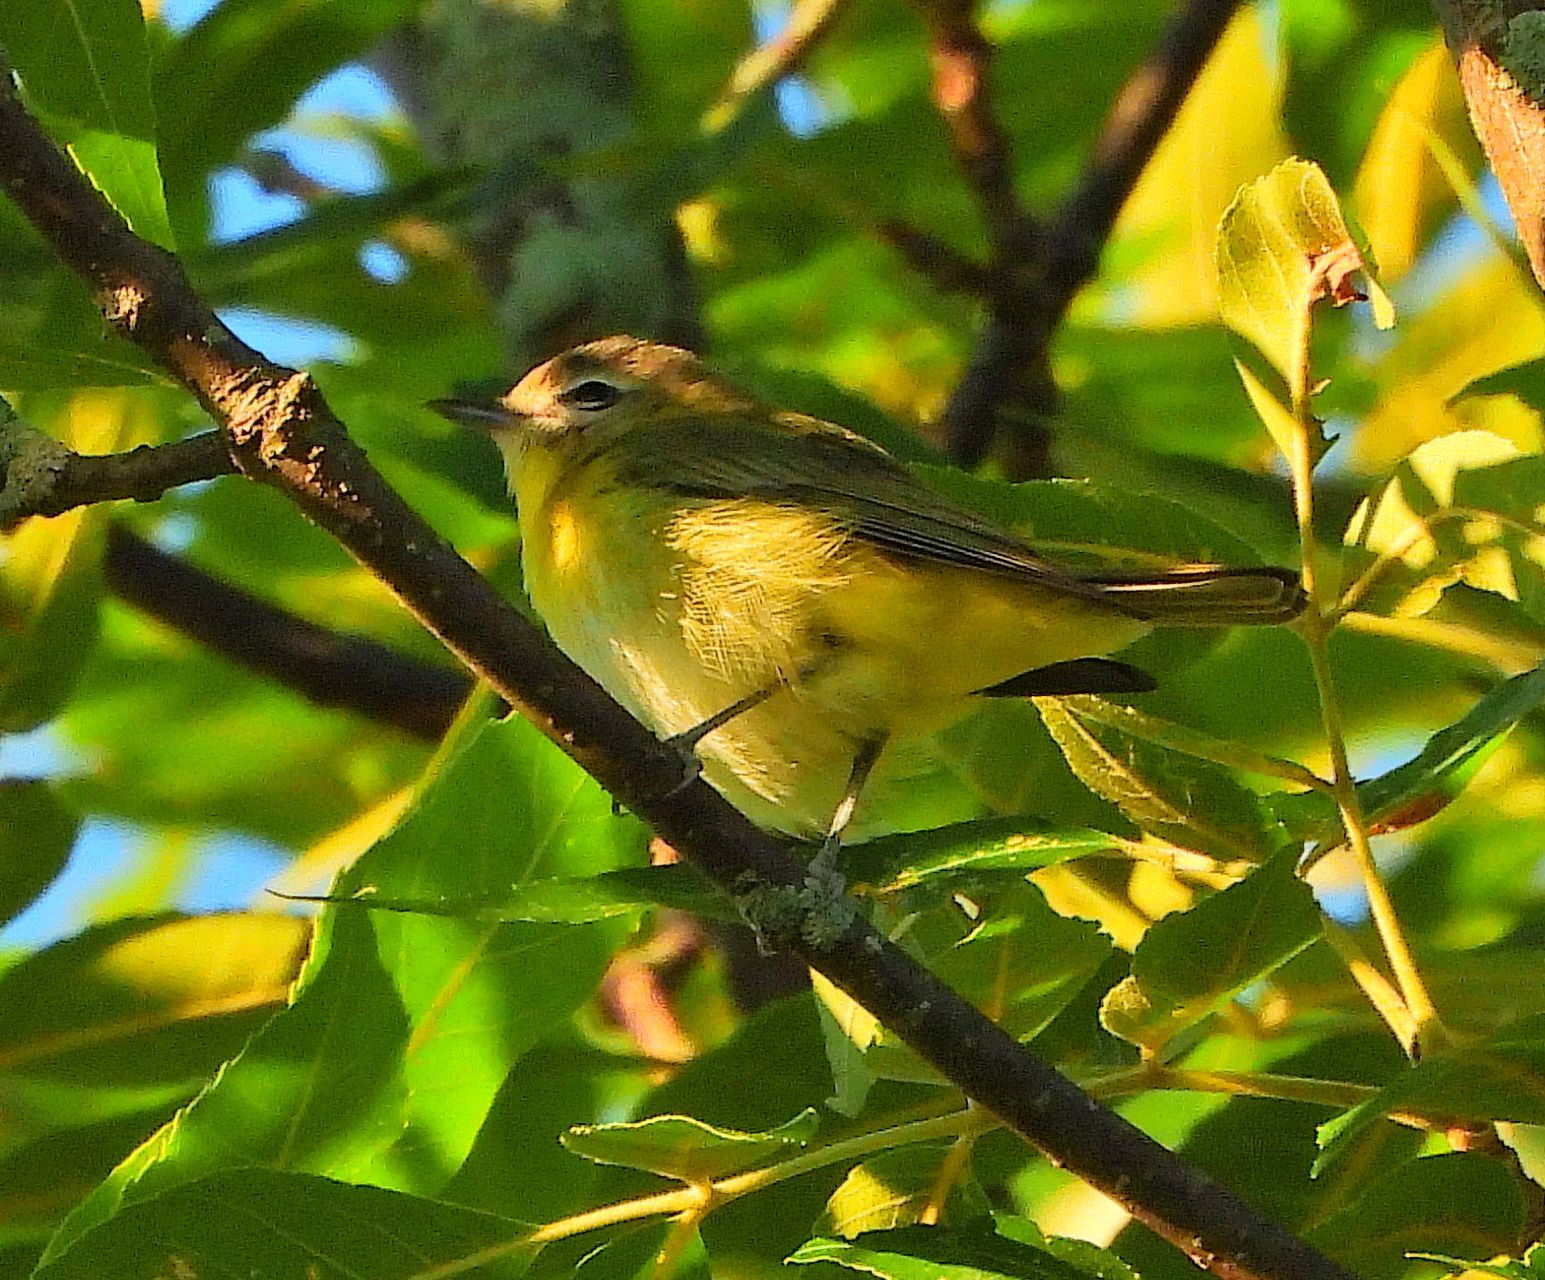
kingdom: Animalia
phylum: Chordata
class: Aves
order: Passeriformes
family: Vireonidae
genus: Vireo
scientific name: Vireo philadelphicus
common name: Philadelphia vireo
